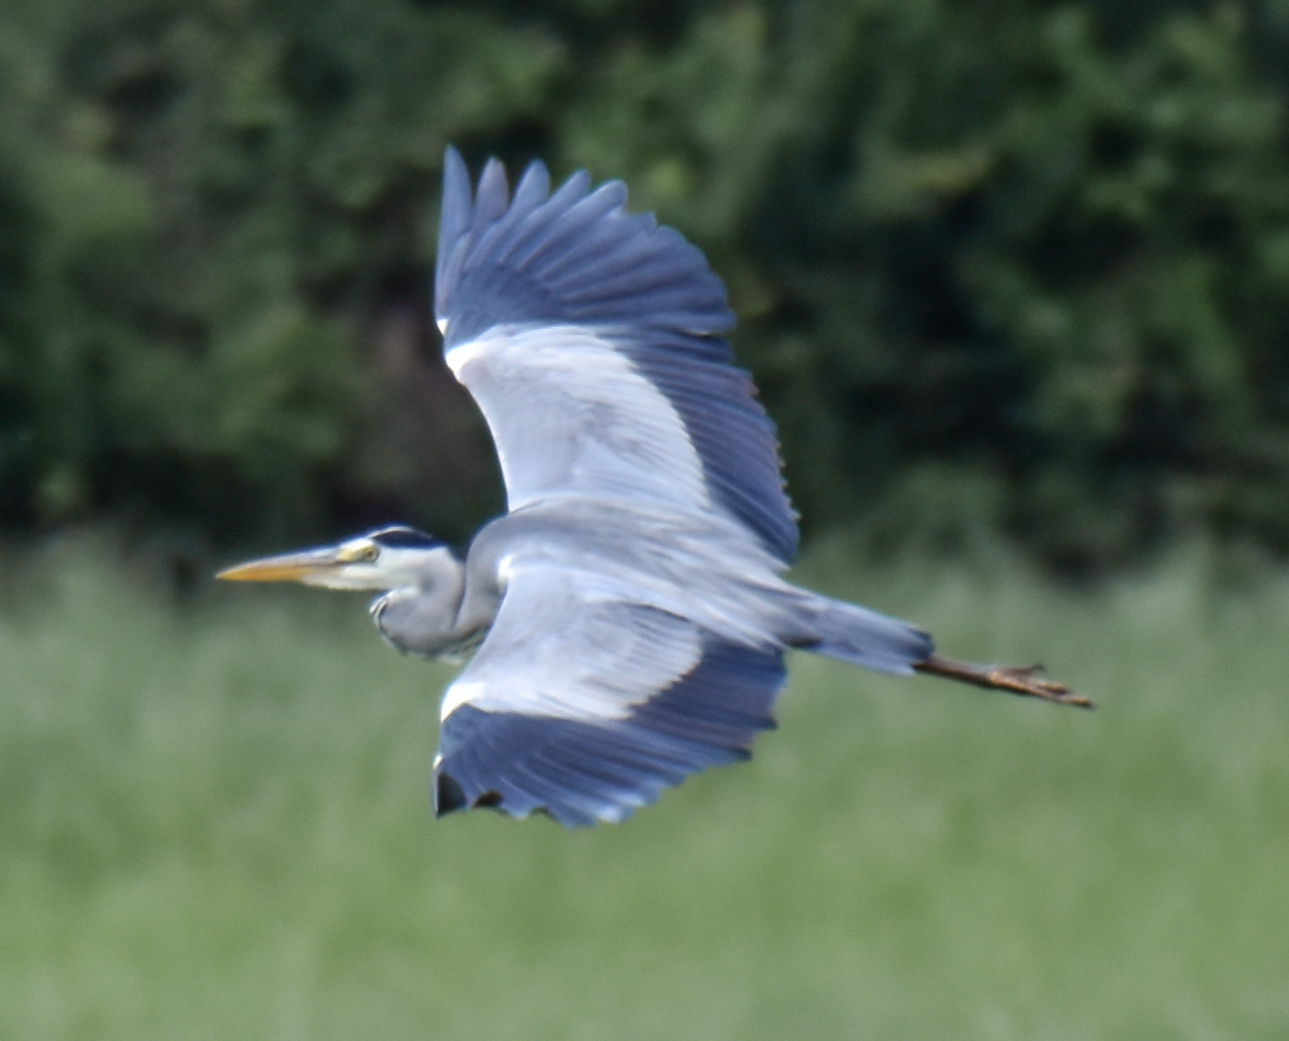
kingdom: Animalia
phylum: Chordata
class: Aves
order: Pelecaniformes
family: Ardeidae
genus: Ardea
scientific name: Ardea cinerea
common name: Grey heron
